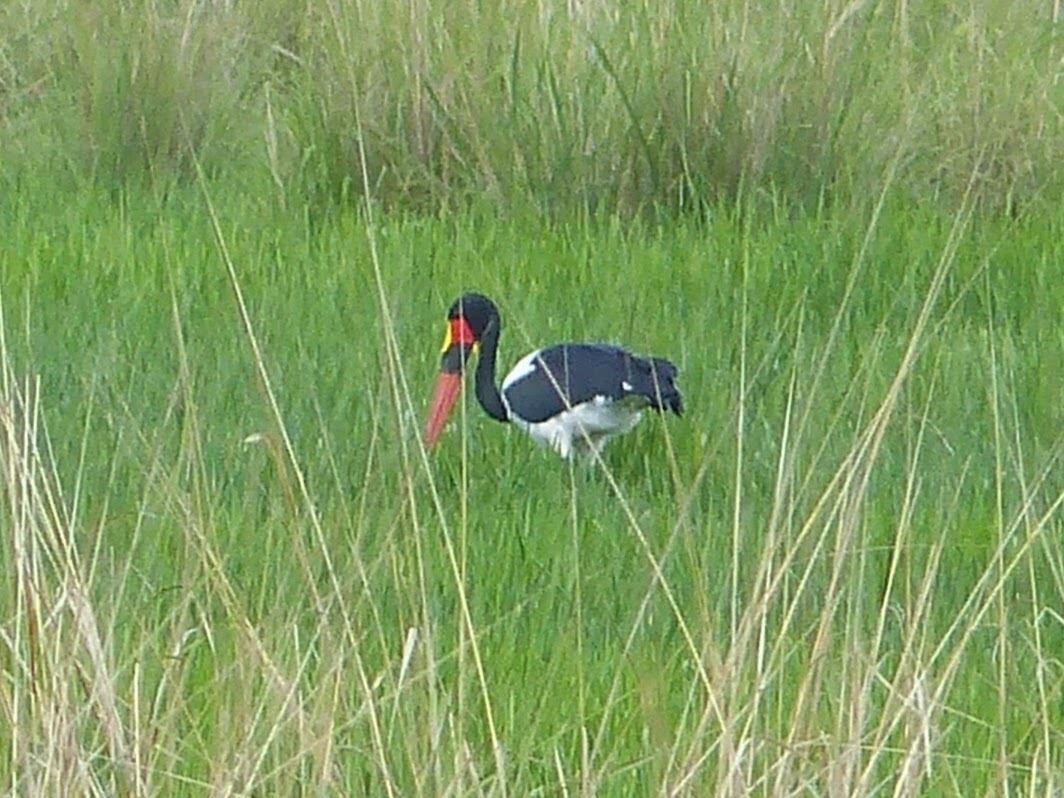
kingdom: Animalia
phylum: Chordata
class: Aves
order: Ciconiiformes
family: Ciconiidae
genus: Ephippiorhynchus
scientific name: Ephippiorhynchus senegalensis
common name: Saddle-billed stork
